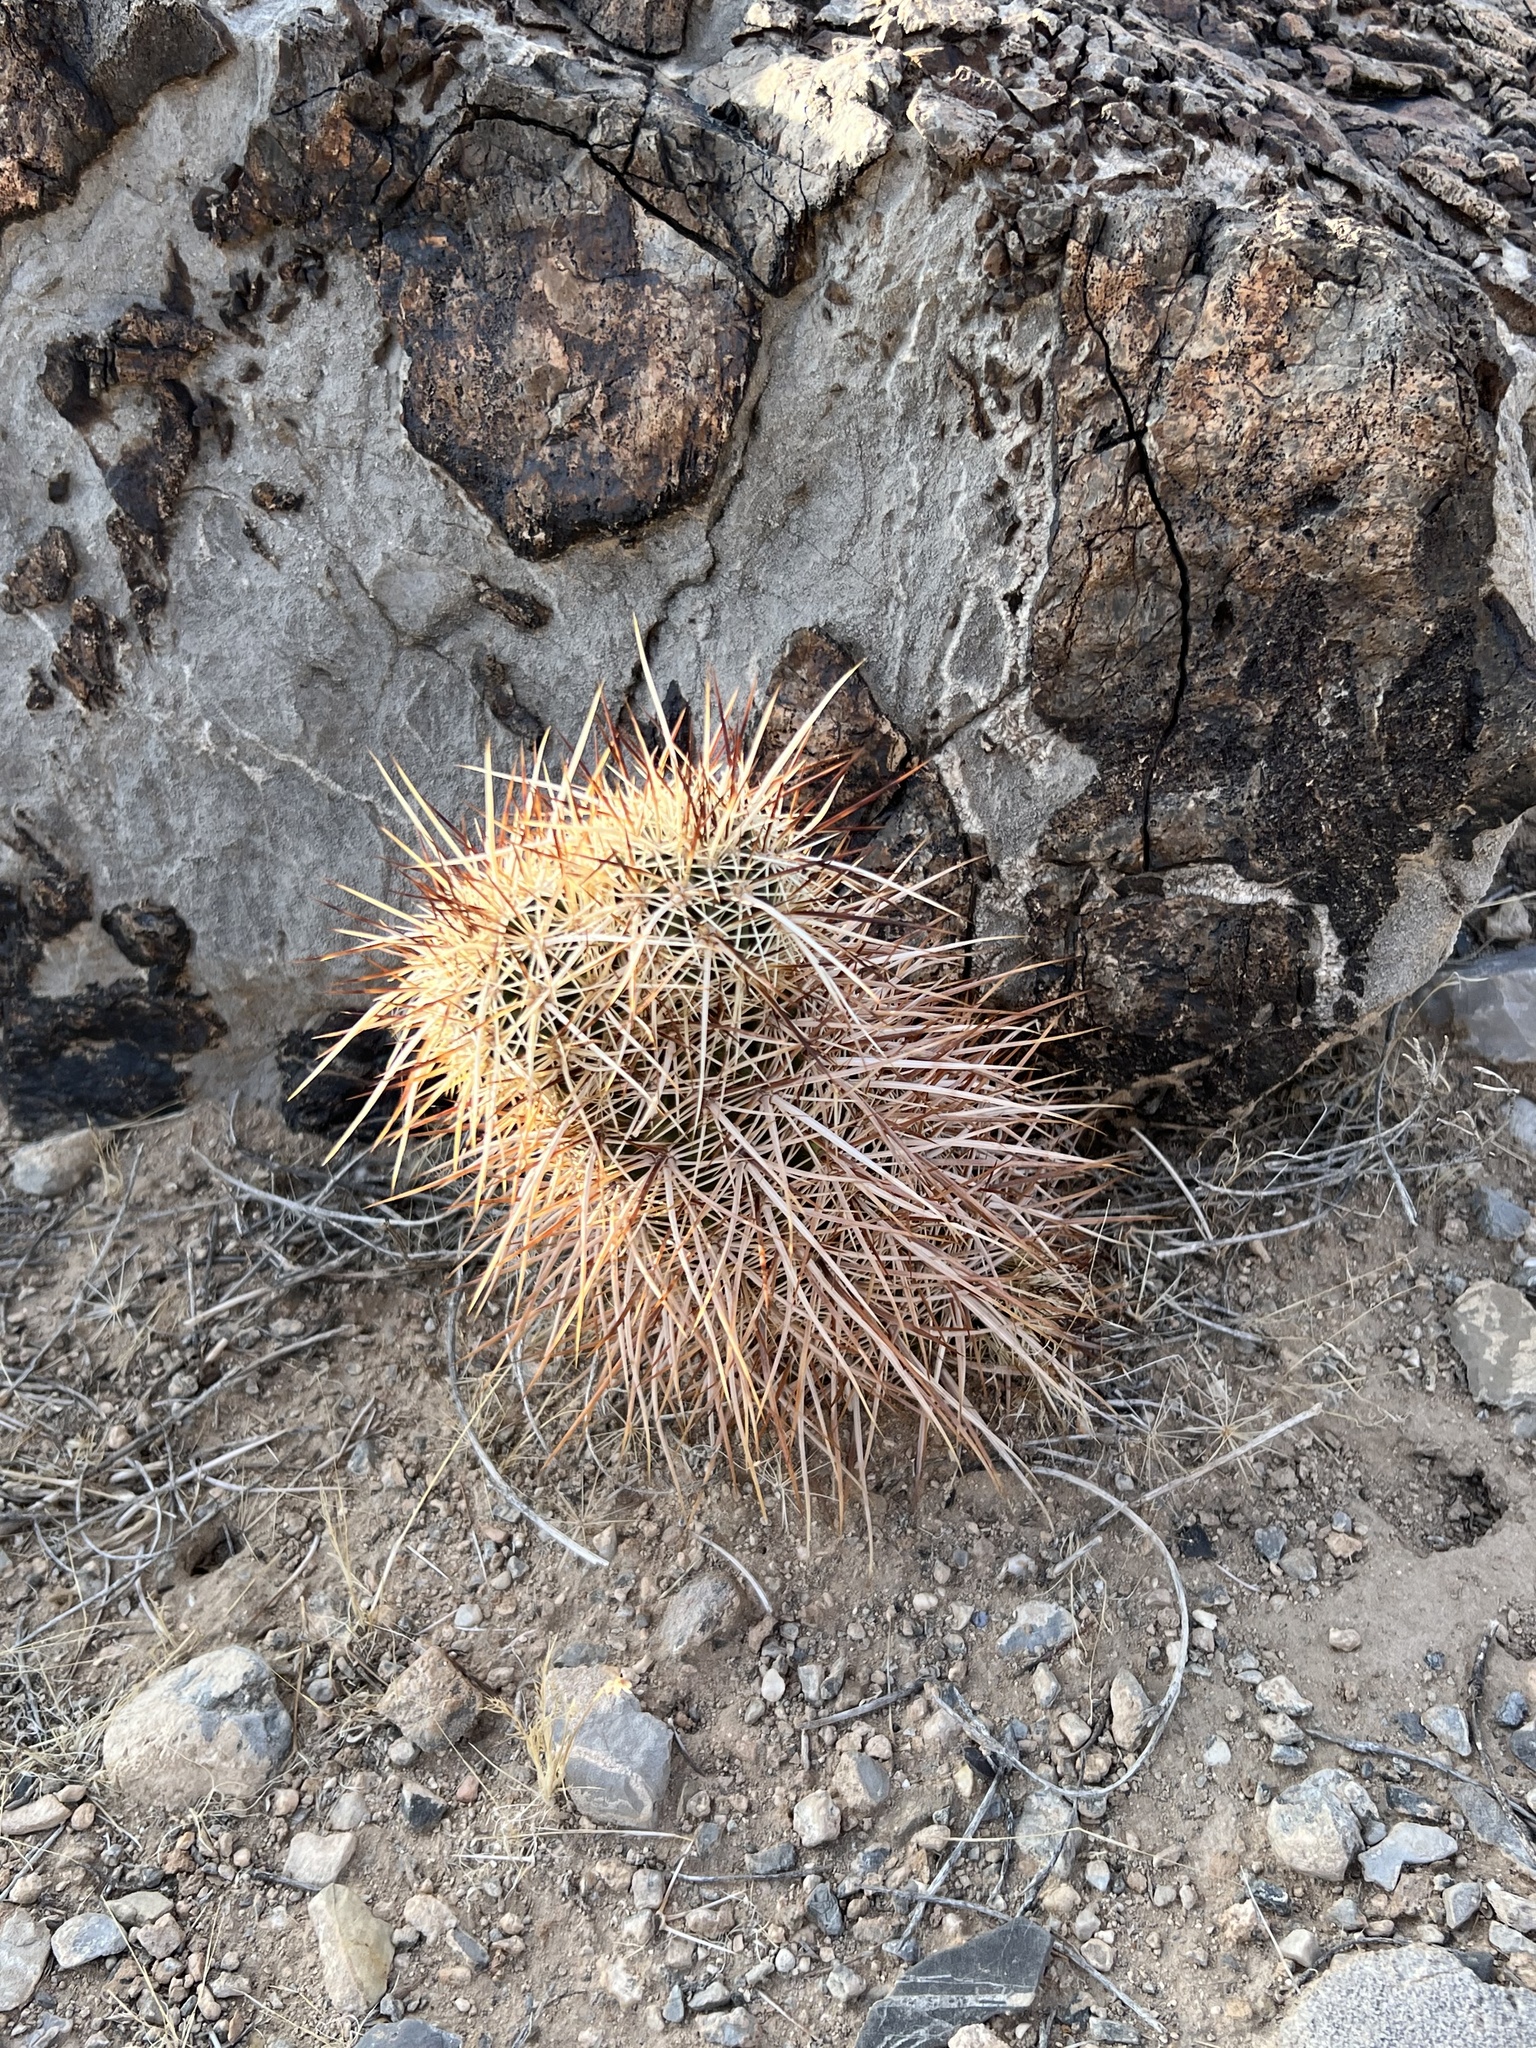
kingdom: Plantae
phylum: Tracheophyta
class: Magnoliopsida
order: Caryophyllales
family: Cactaceae
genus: Echinocereus
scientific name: Echinocereus engelmannii
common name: Engelmann's hedgehog cactus
